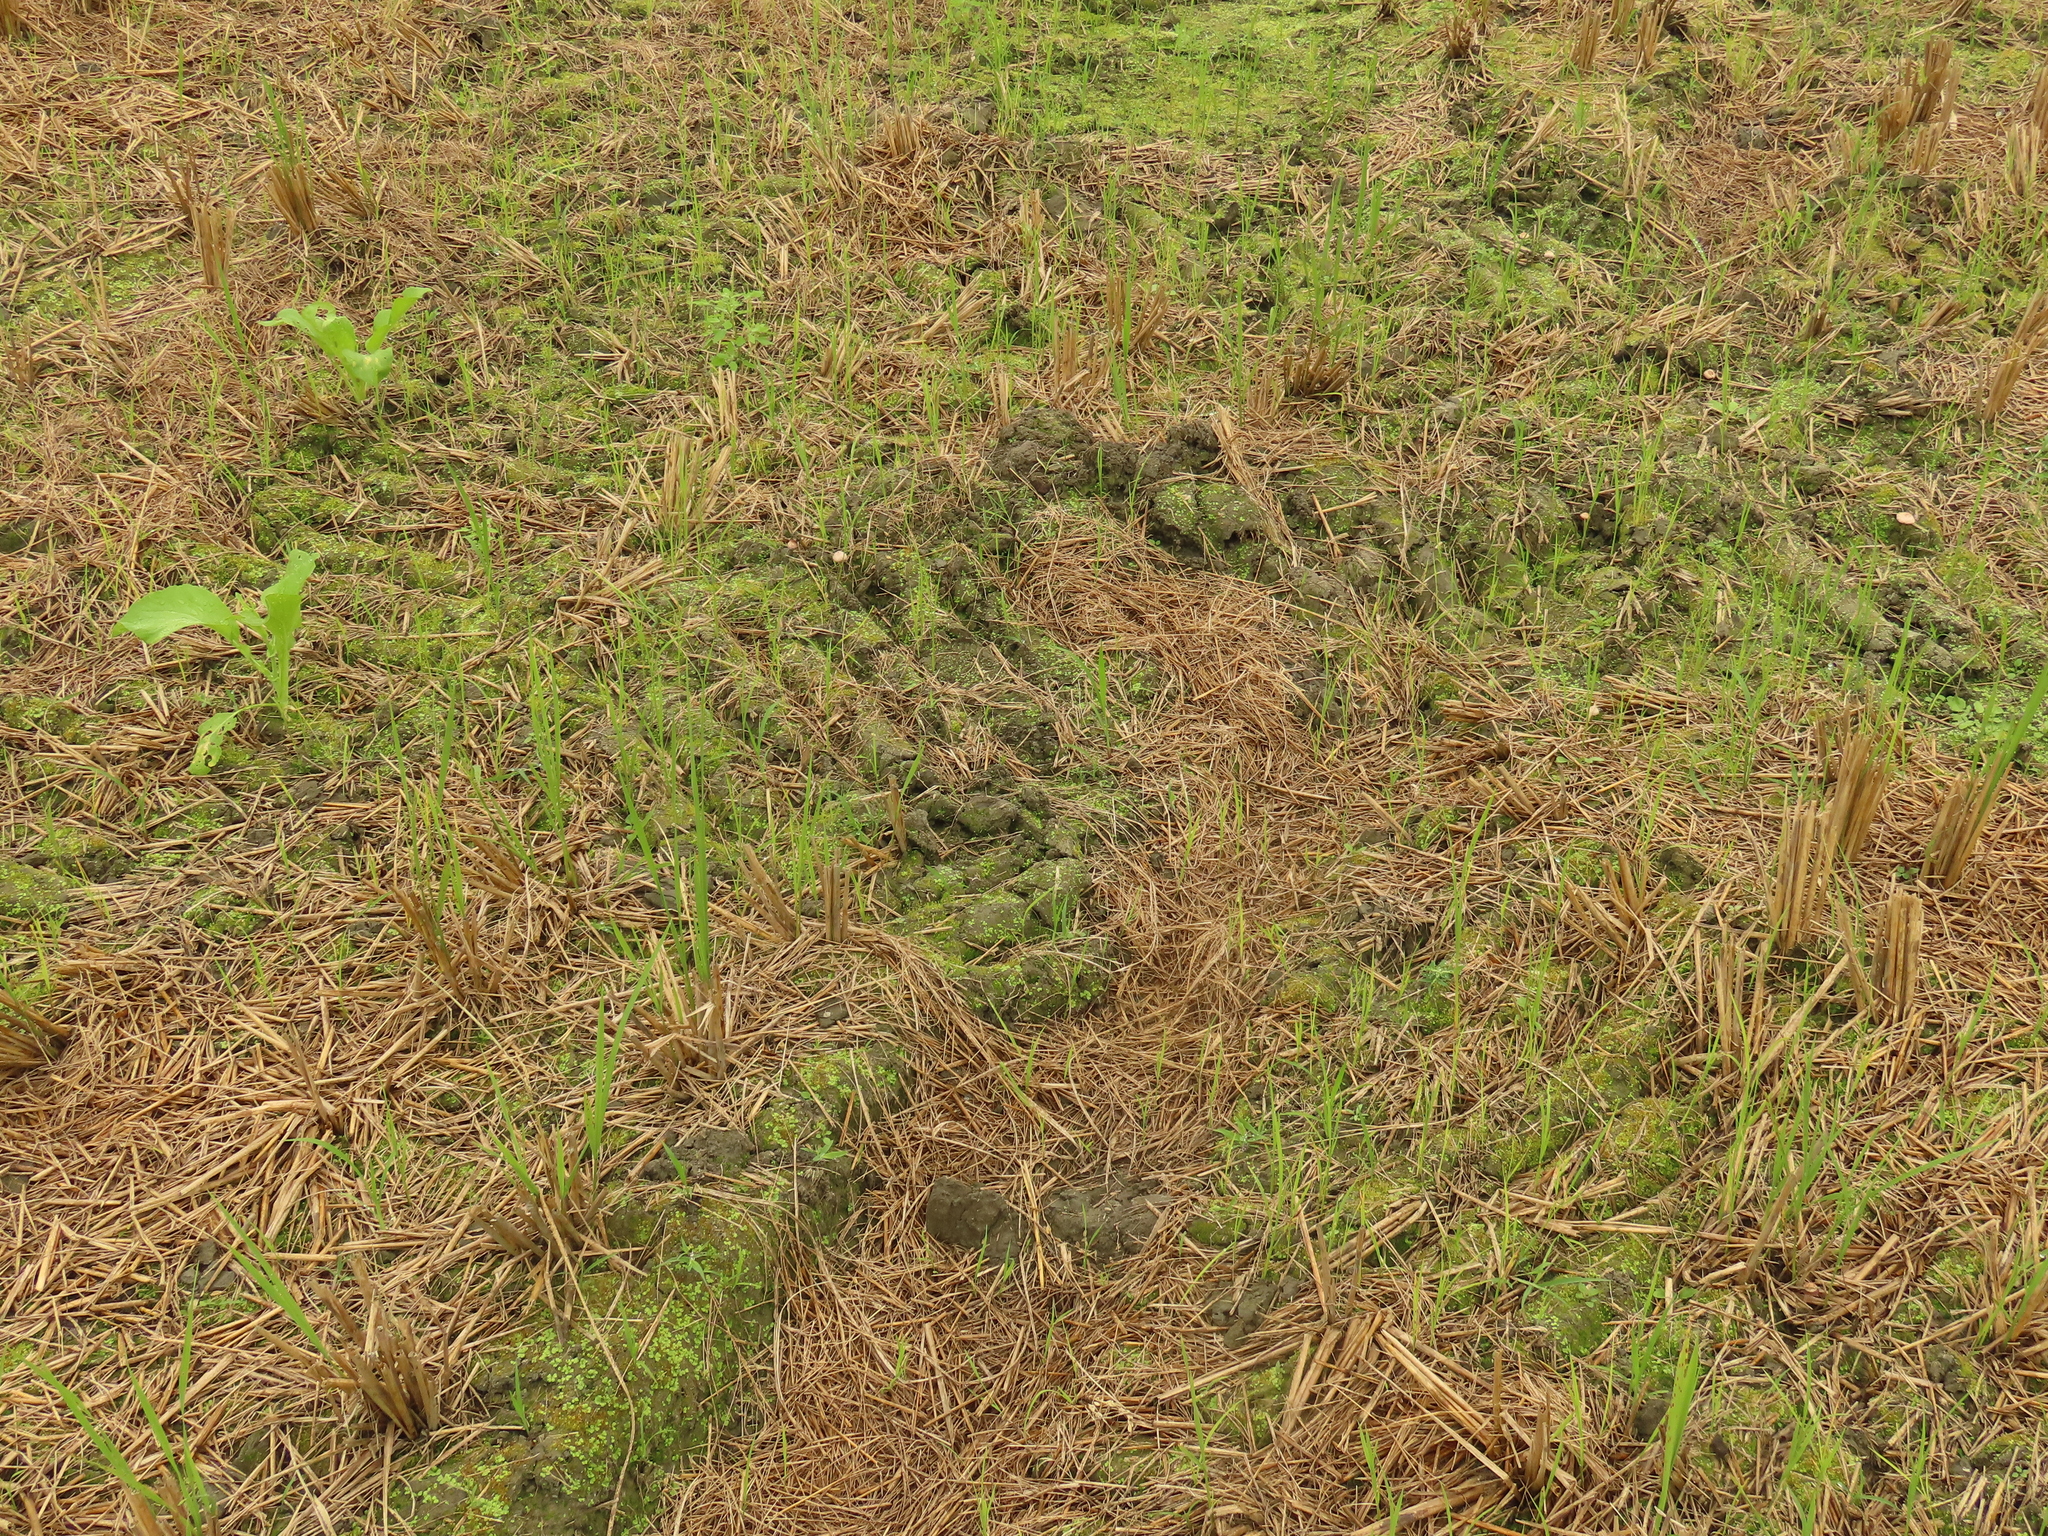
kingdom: Plantae
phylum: Marchantiophyta
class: Marchantiopsida
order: Marchantiales
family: Ricciaceae
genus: Ricciocarpos
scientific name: Ricciocarpos natans
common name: Purple-fringed liverwort
